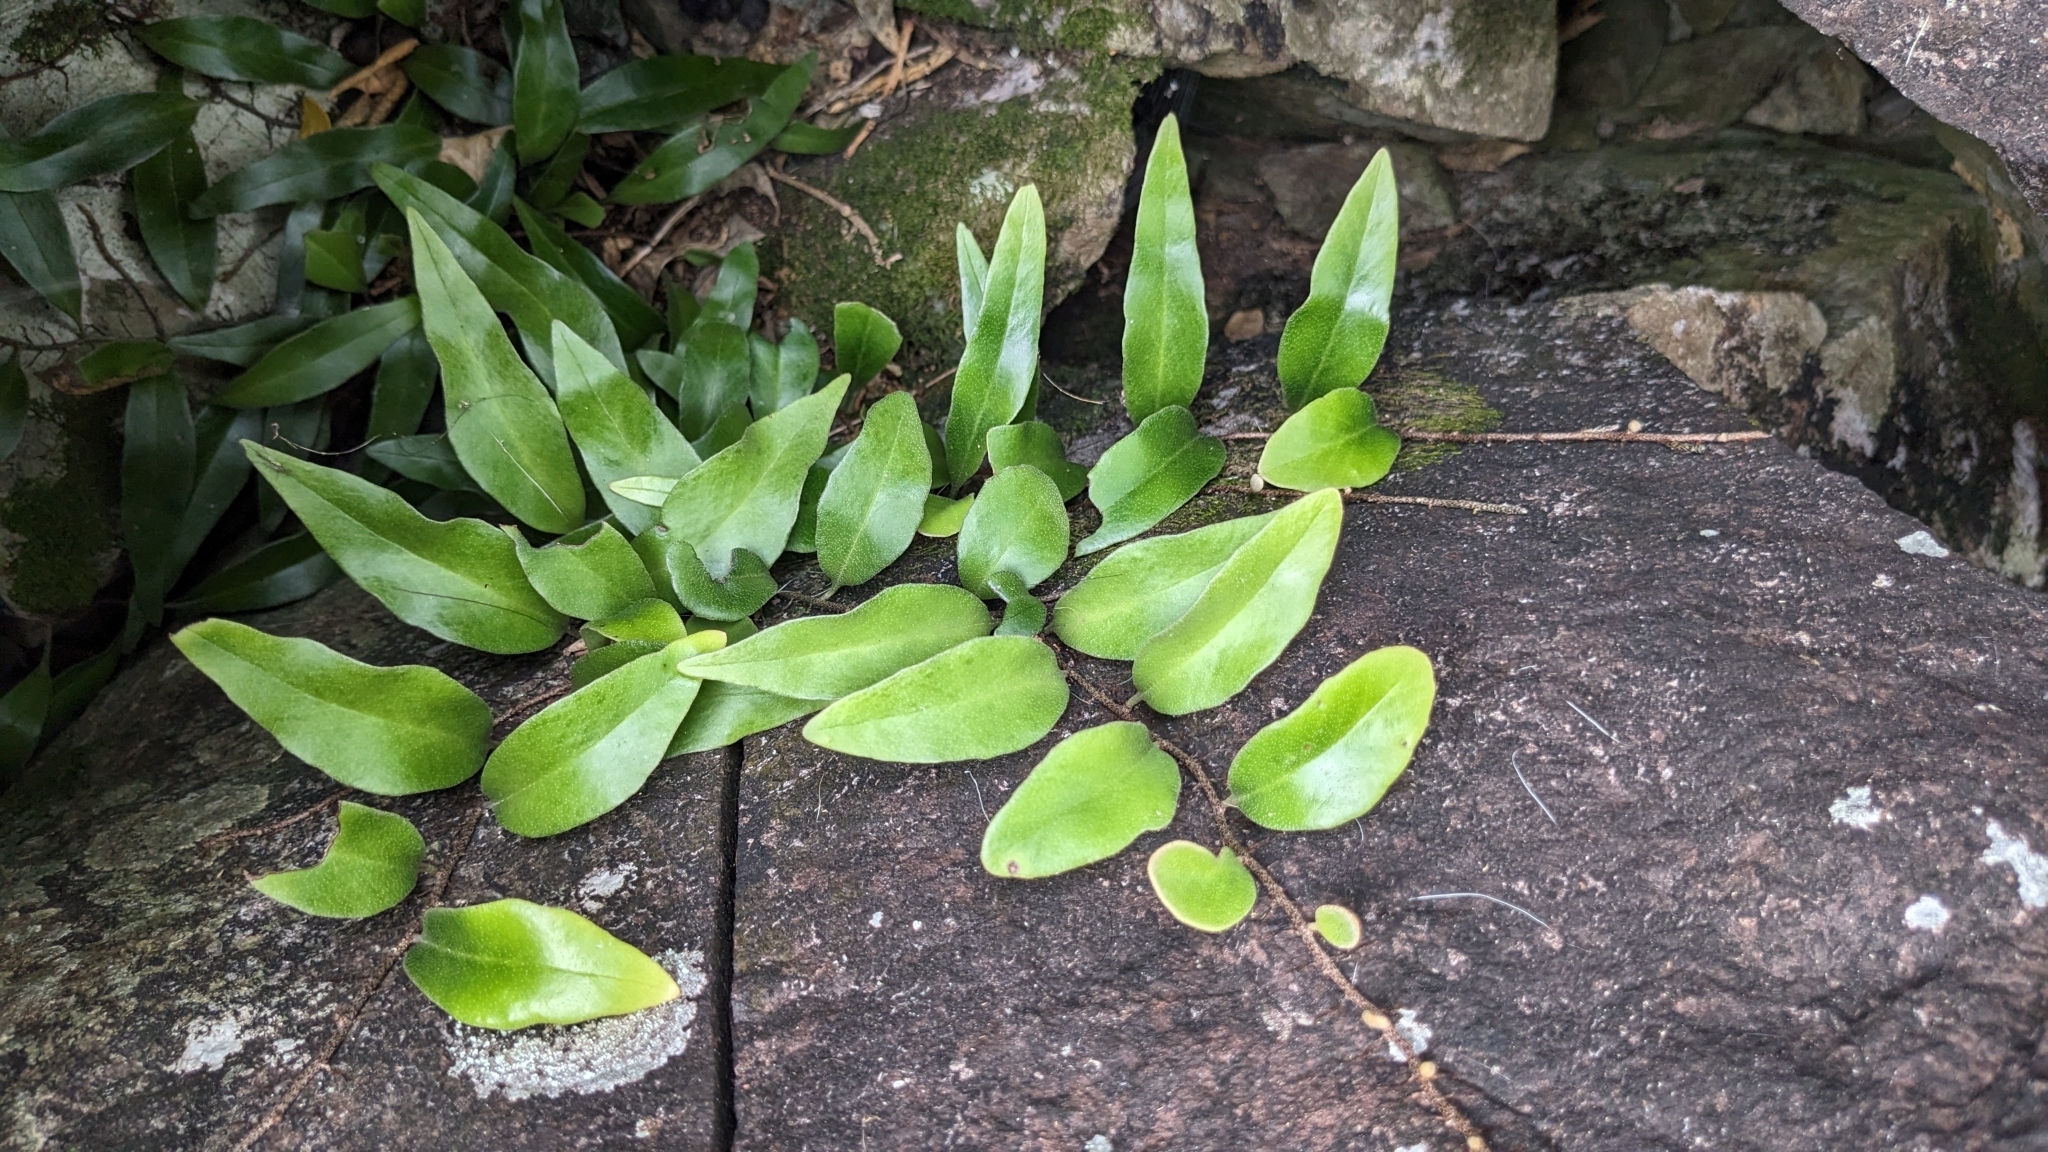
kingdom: Plantae
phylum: Tracheophyta
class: Polypodiopsida
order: Polypodiales
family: Polypodiaceae
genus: Pyrrosia
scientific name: Pyrrosia lanceolata
